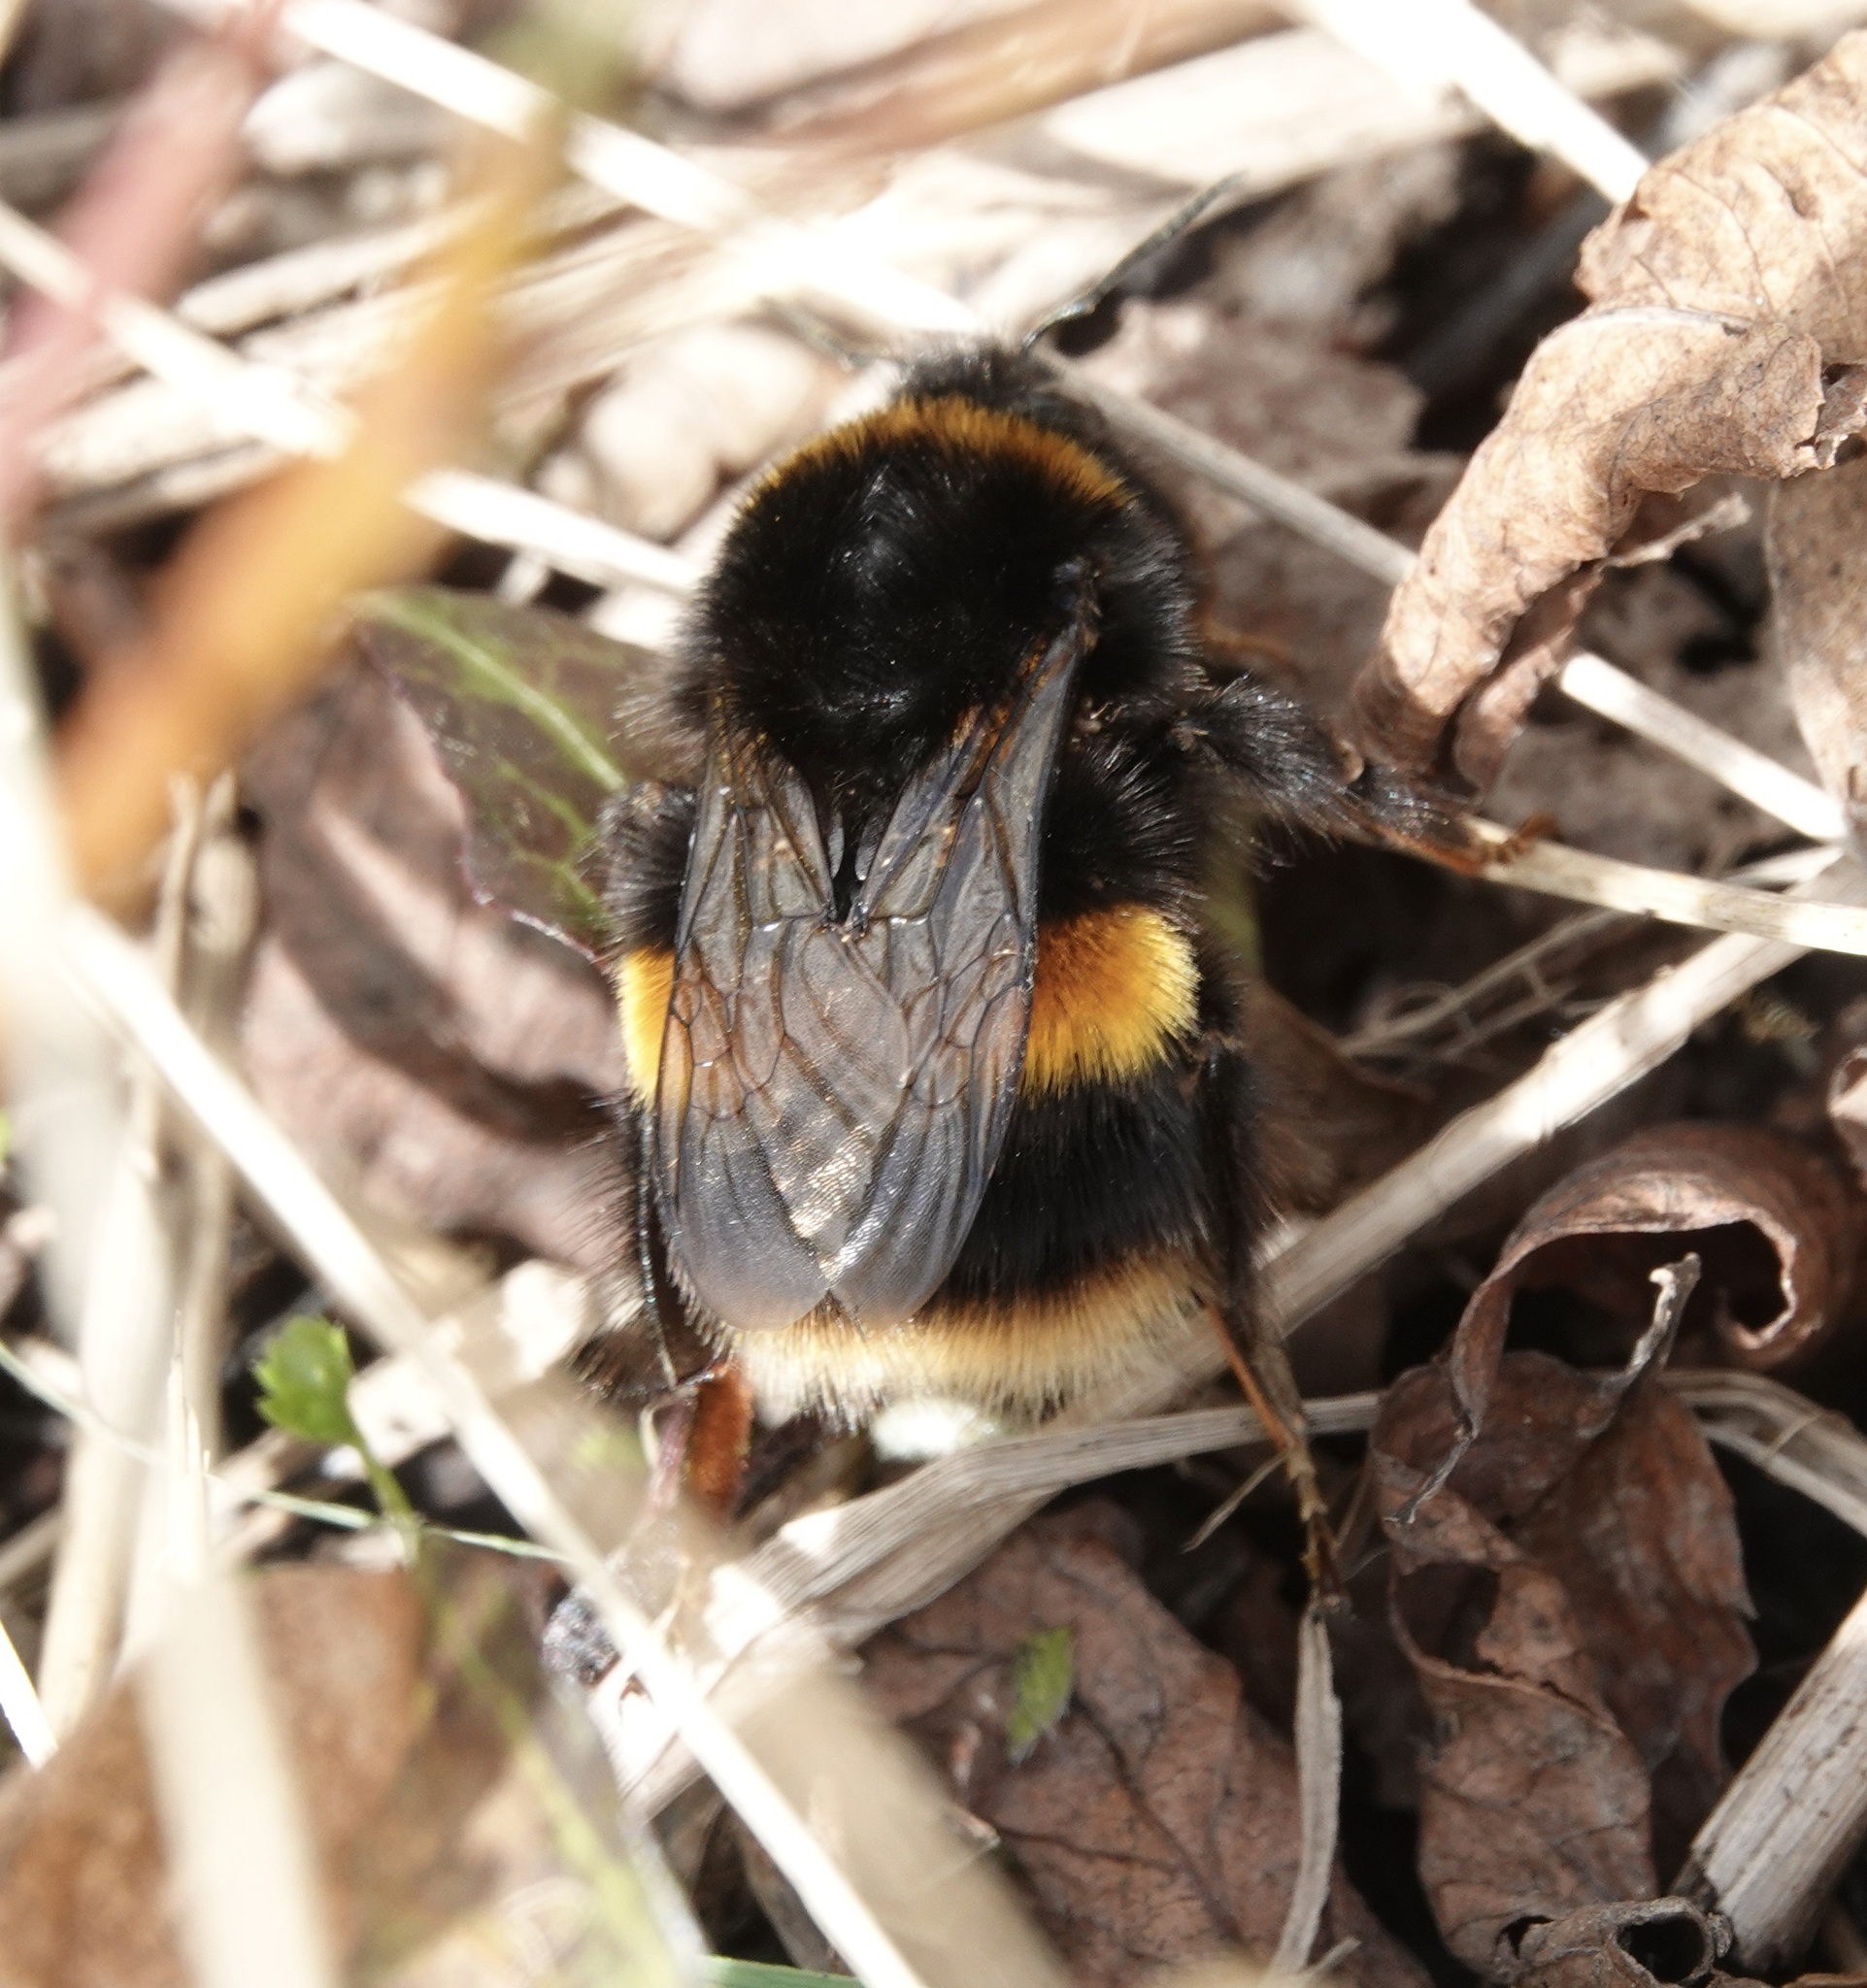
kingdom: Animalia
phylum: Arthropoda
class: Insecta
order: Hymenoptera
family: Apidae
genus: Bombus
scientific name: Bombus terrestris
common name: Buff-tailed bumblebee
